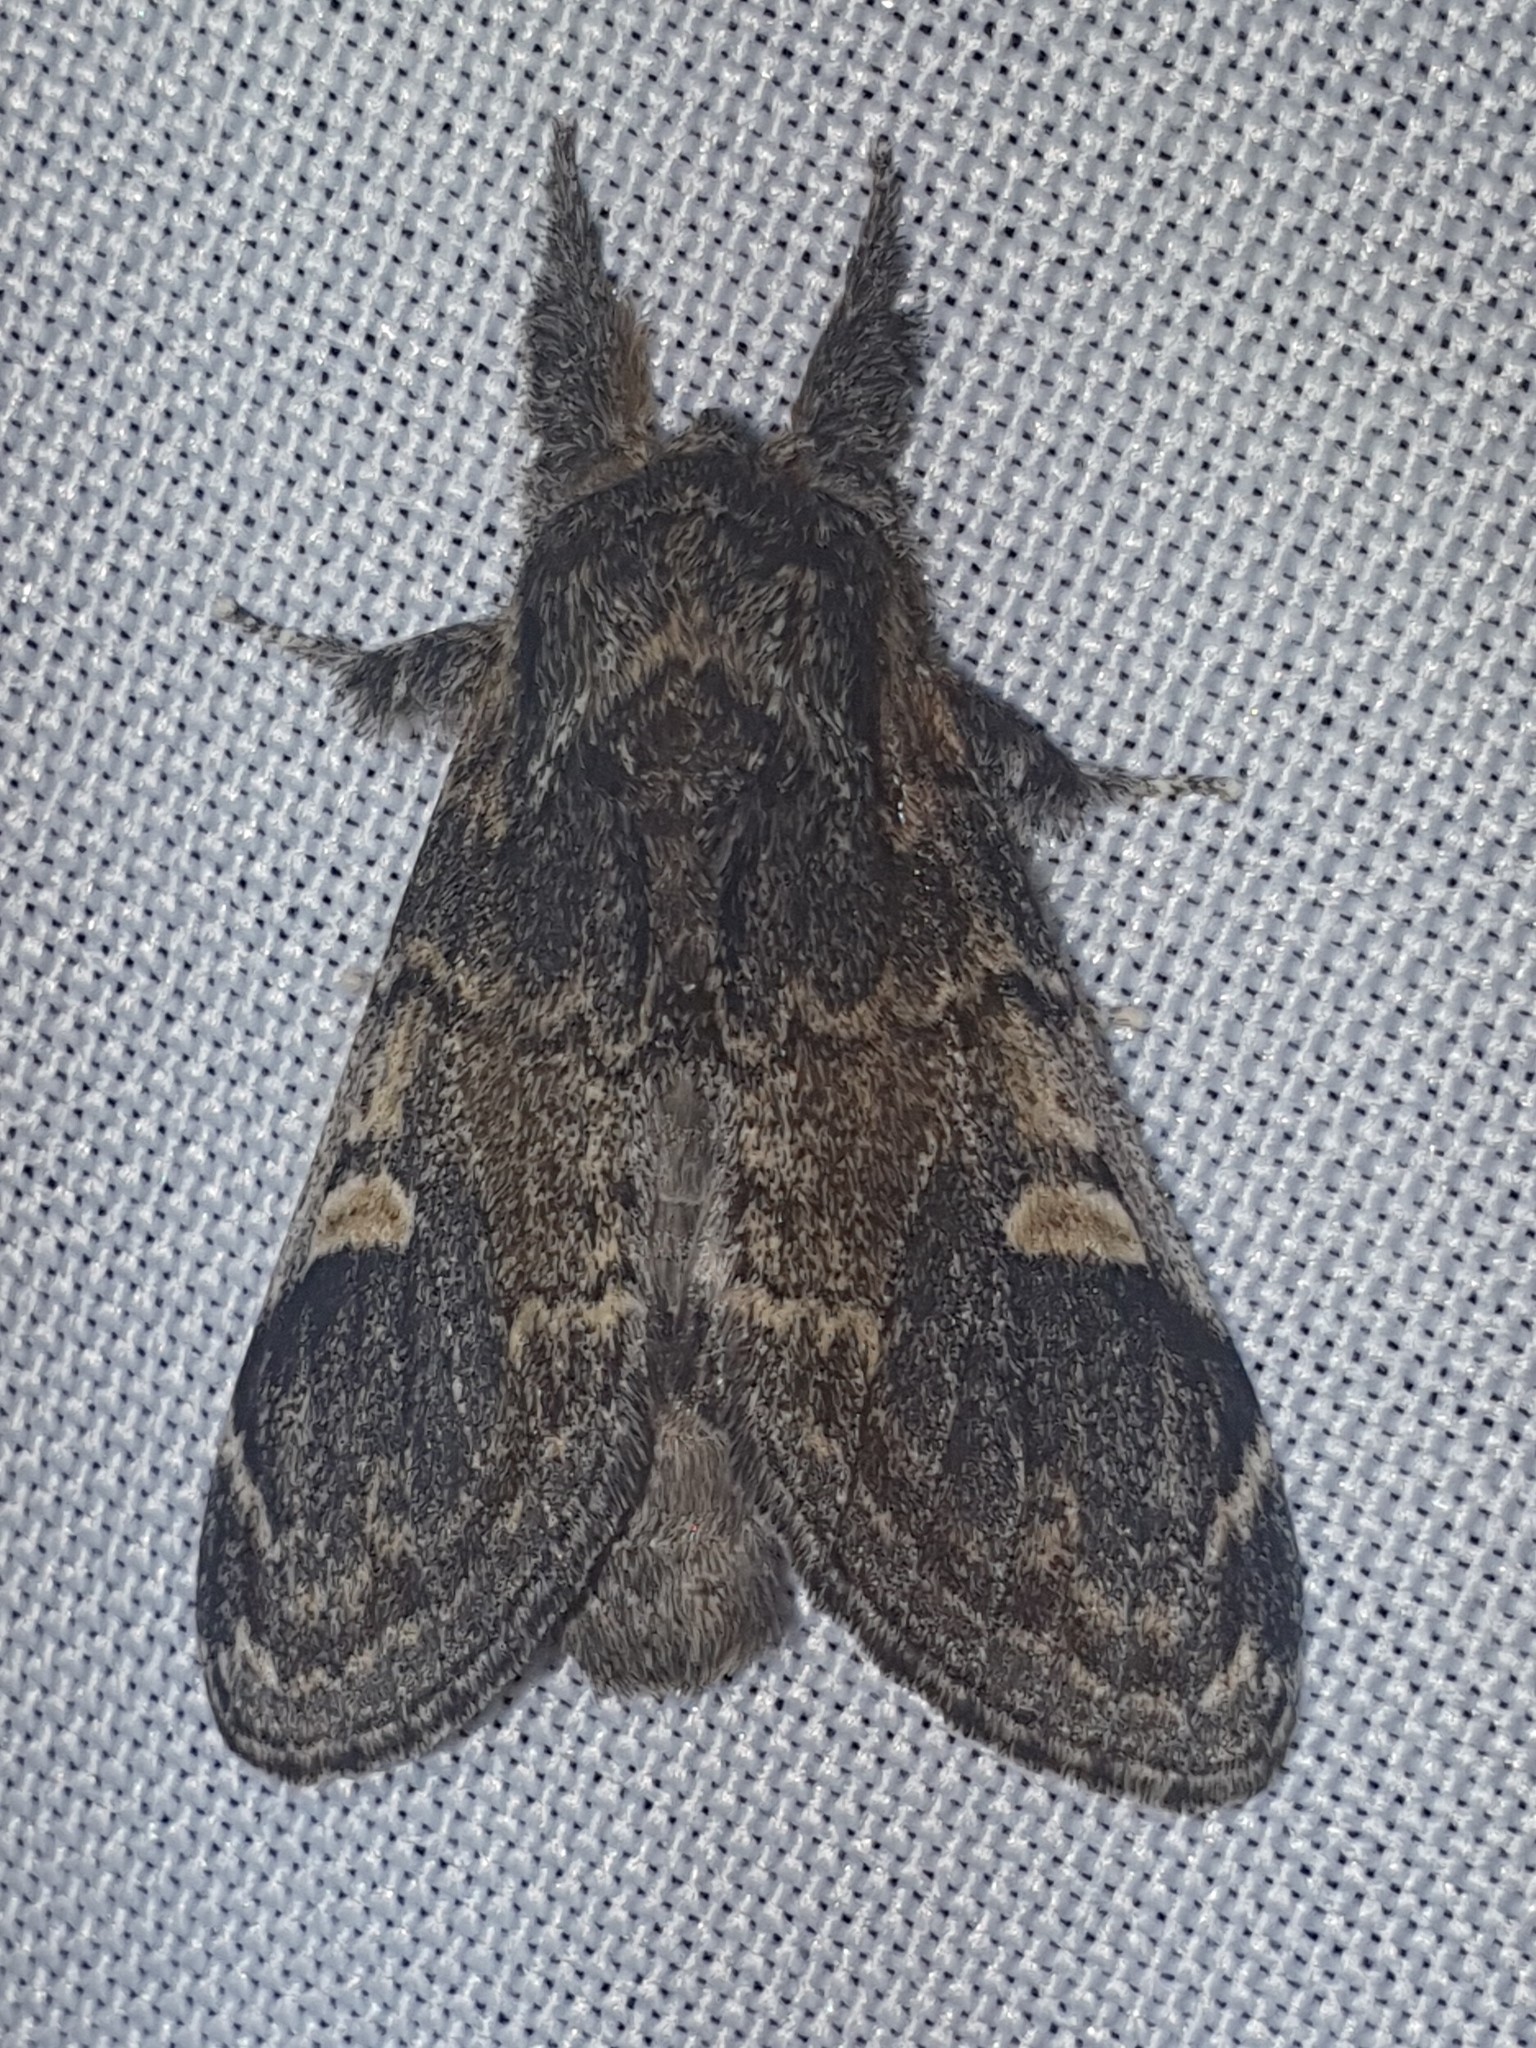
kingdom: Animalia
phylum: Arthropoda
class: Insecta
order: Lepidoptera
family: Notodontidae
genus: Notodonta
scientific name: Notodonta tritophus
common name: Three-humped prominent
